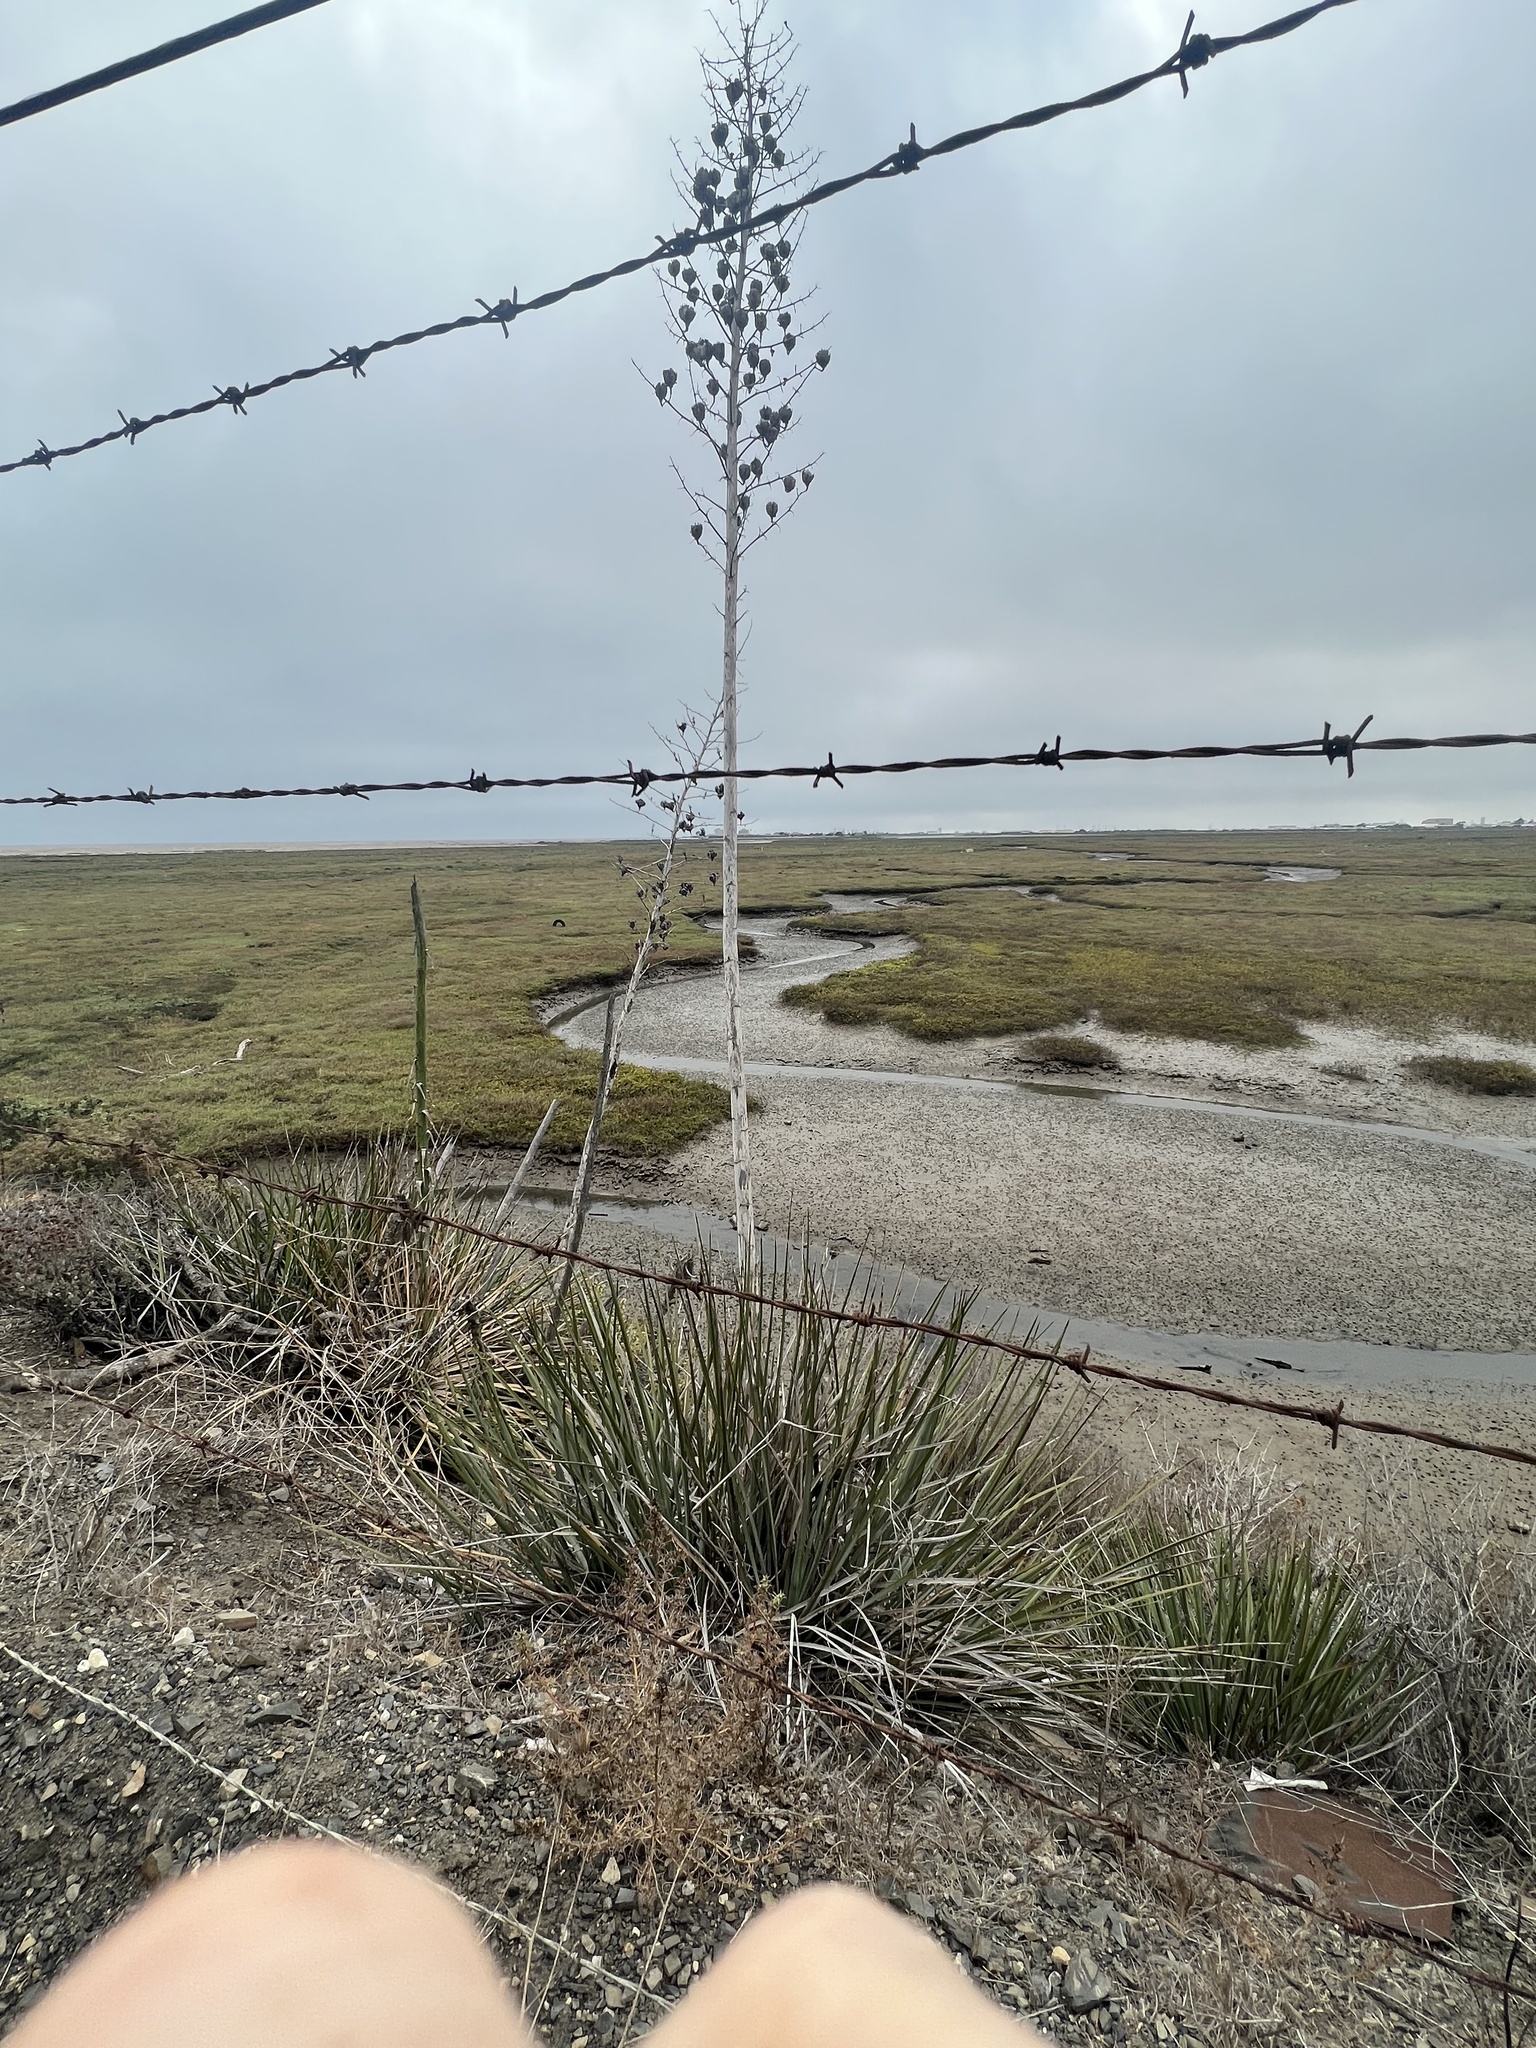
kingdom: Plantae
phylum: Tracheophyta
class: Liliopsida
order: Asparagales
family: Asparagaceae
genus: Hesperoyucca
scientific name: Hesperoyucca whipplei
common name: Our lord's-candle
